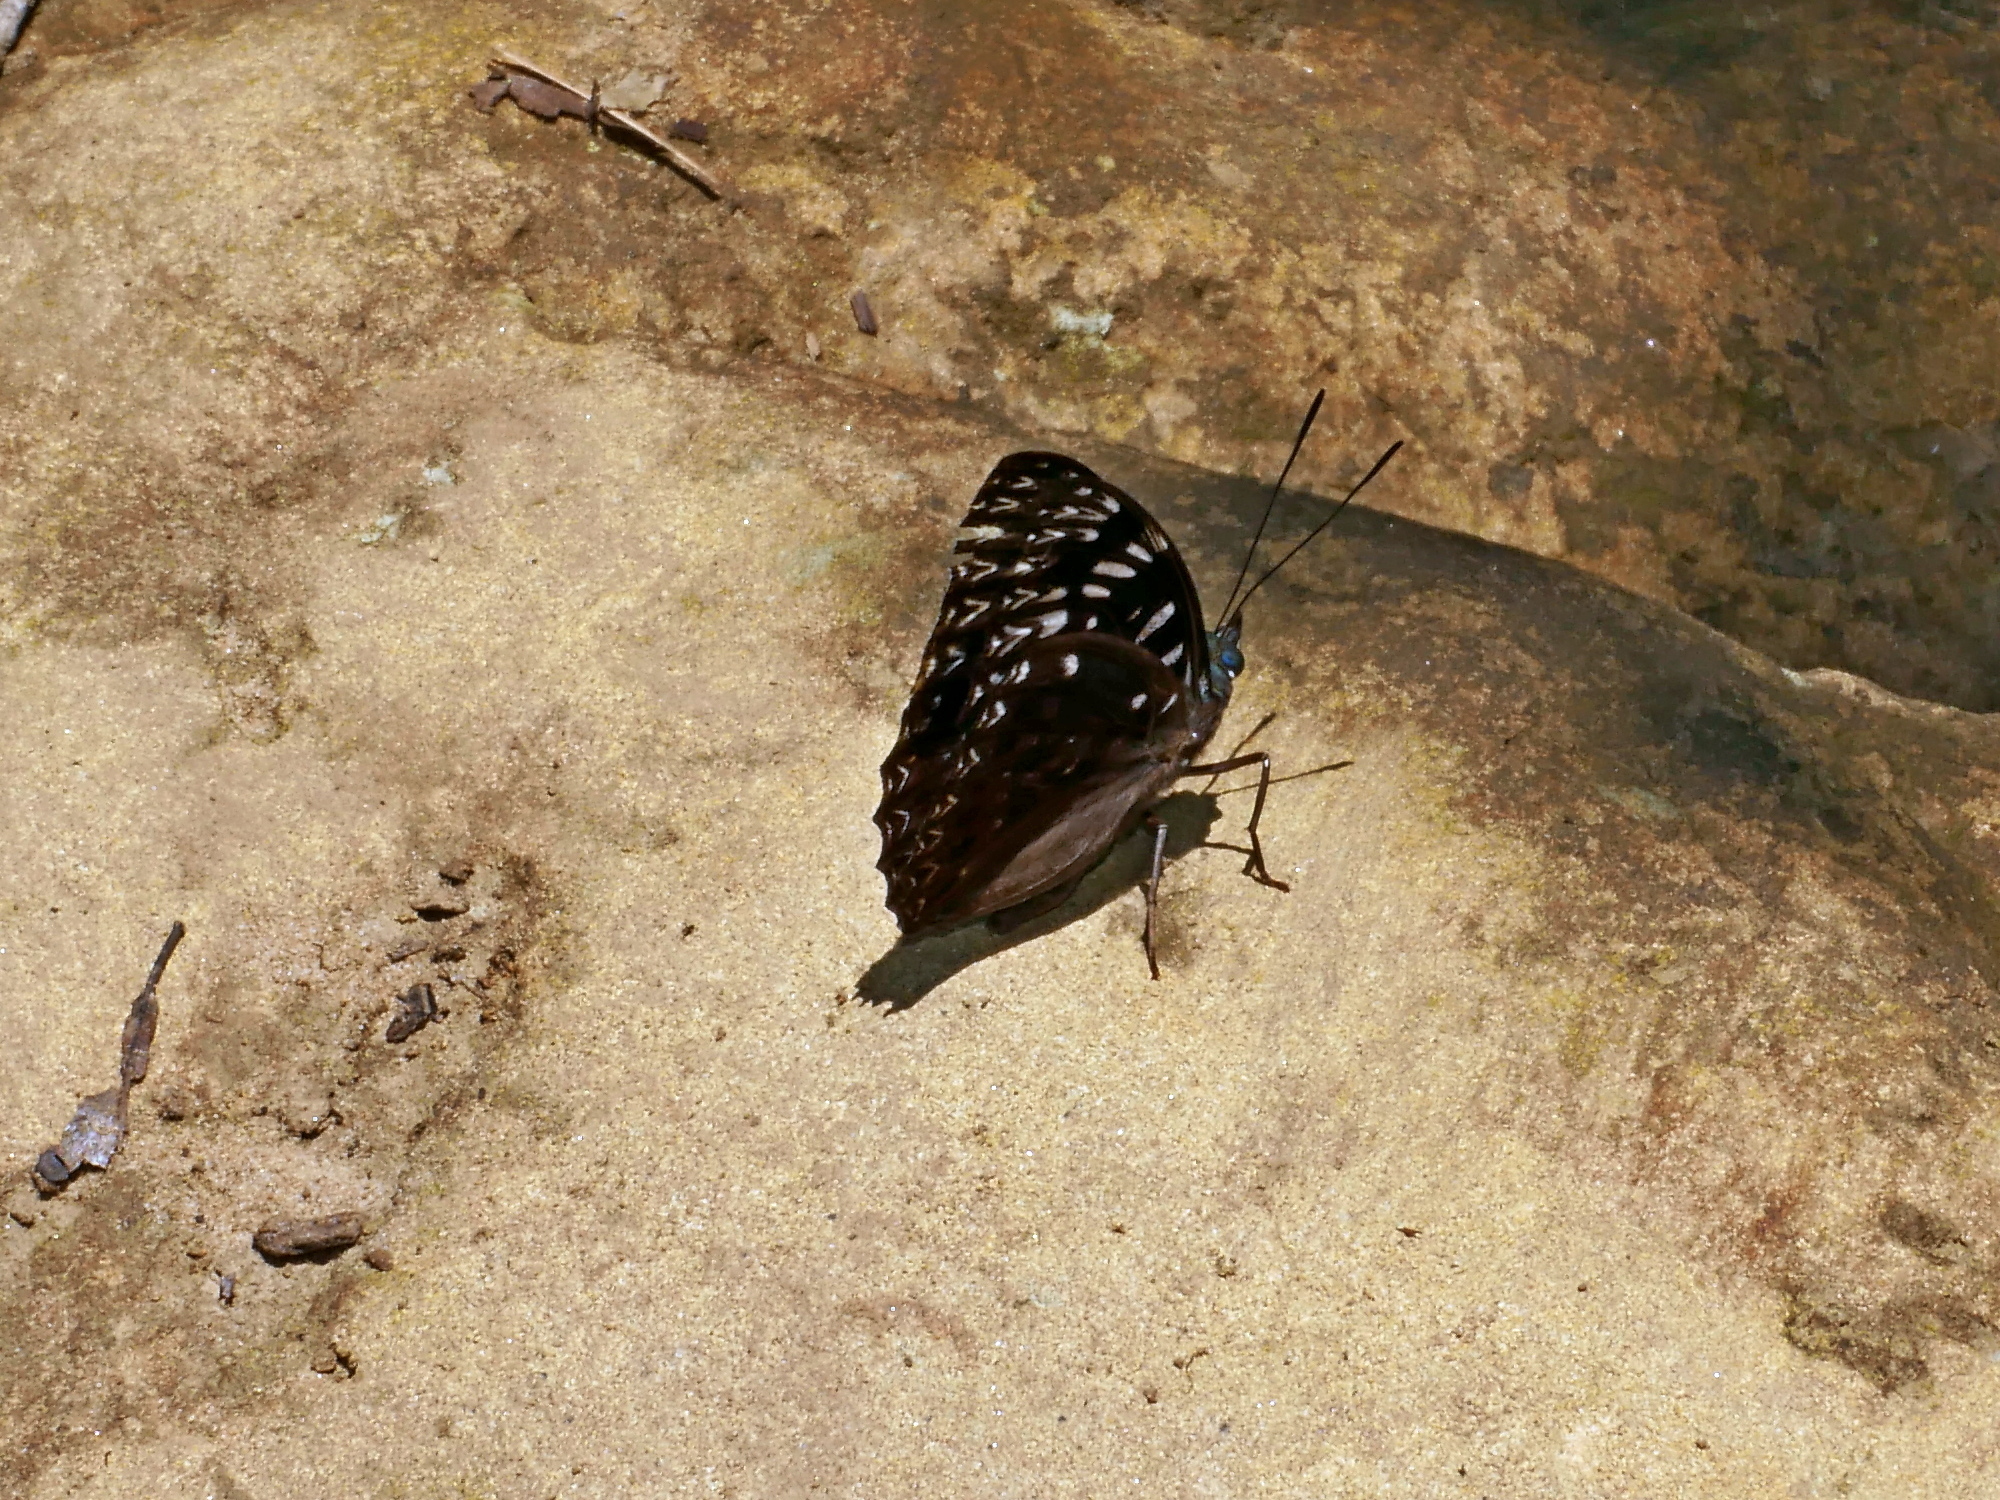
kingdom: Animalia
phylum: Arthropoda
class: Insecta
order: Lepidoptera
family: Nymphalidae
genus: Dichorragia
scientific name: Dichorragia nesimachus
